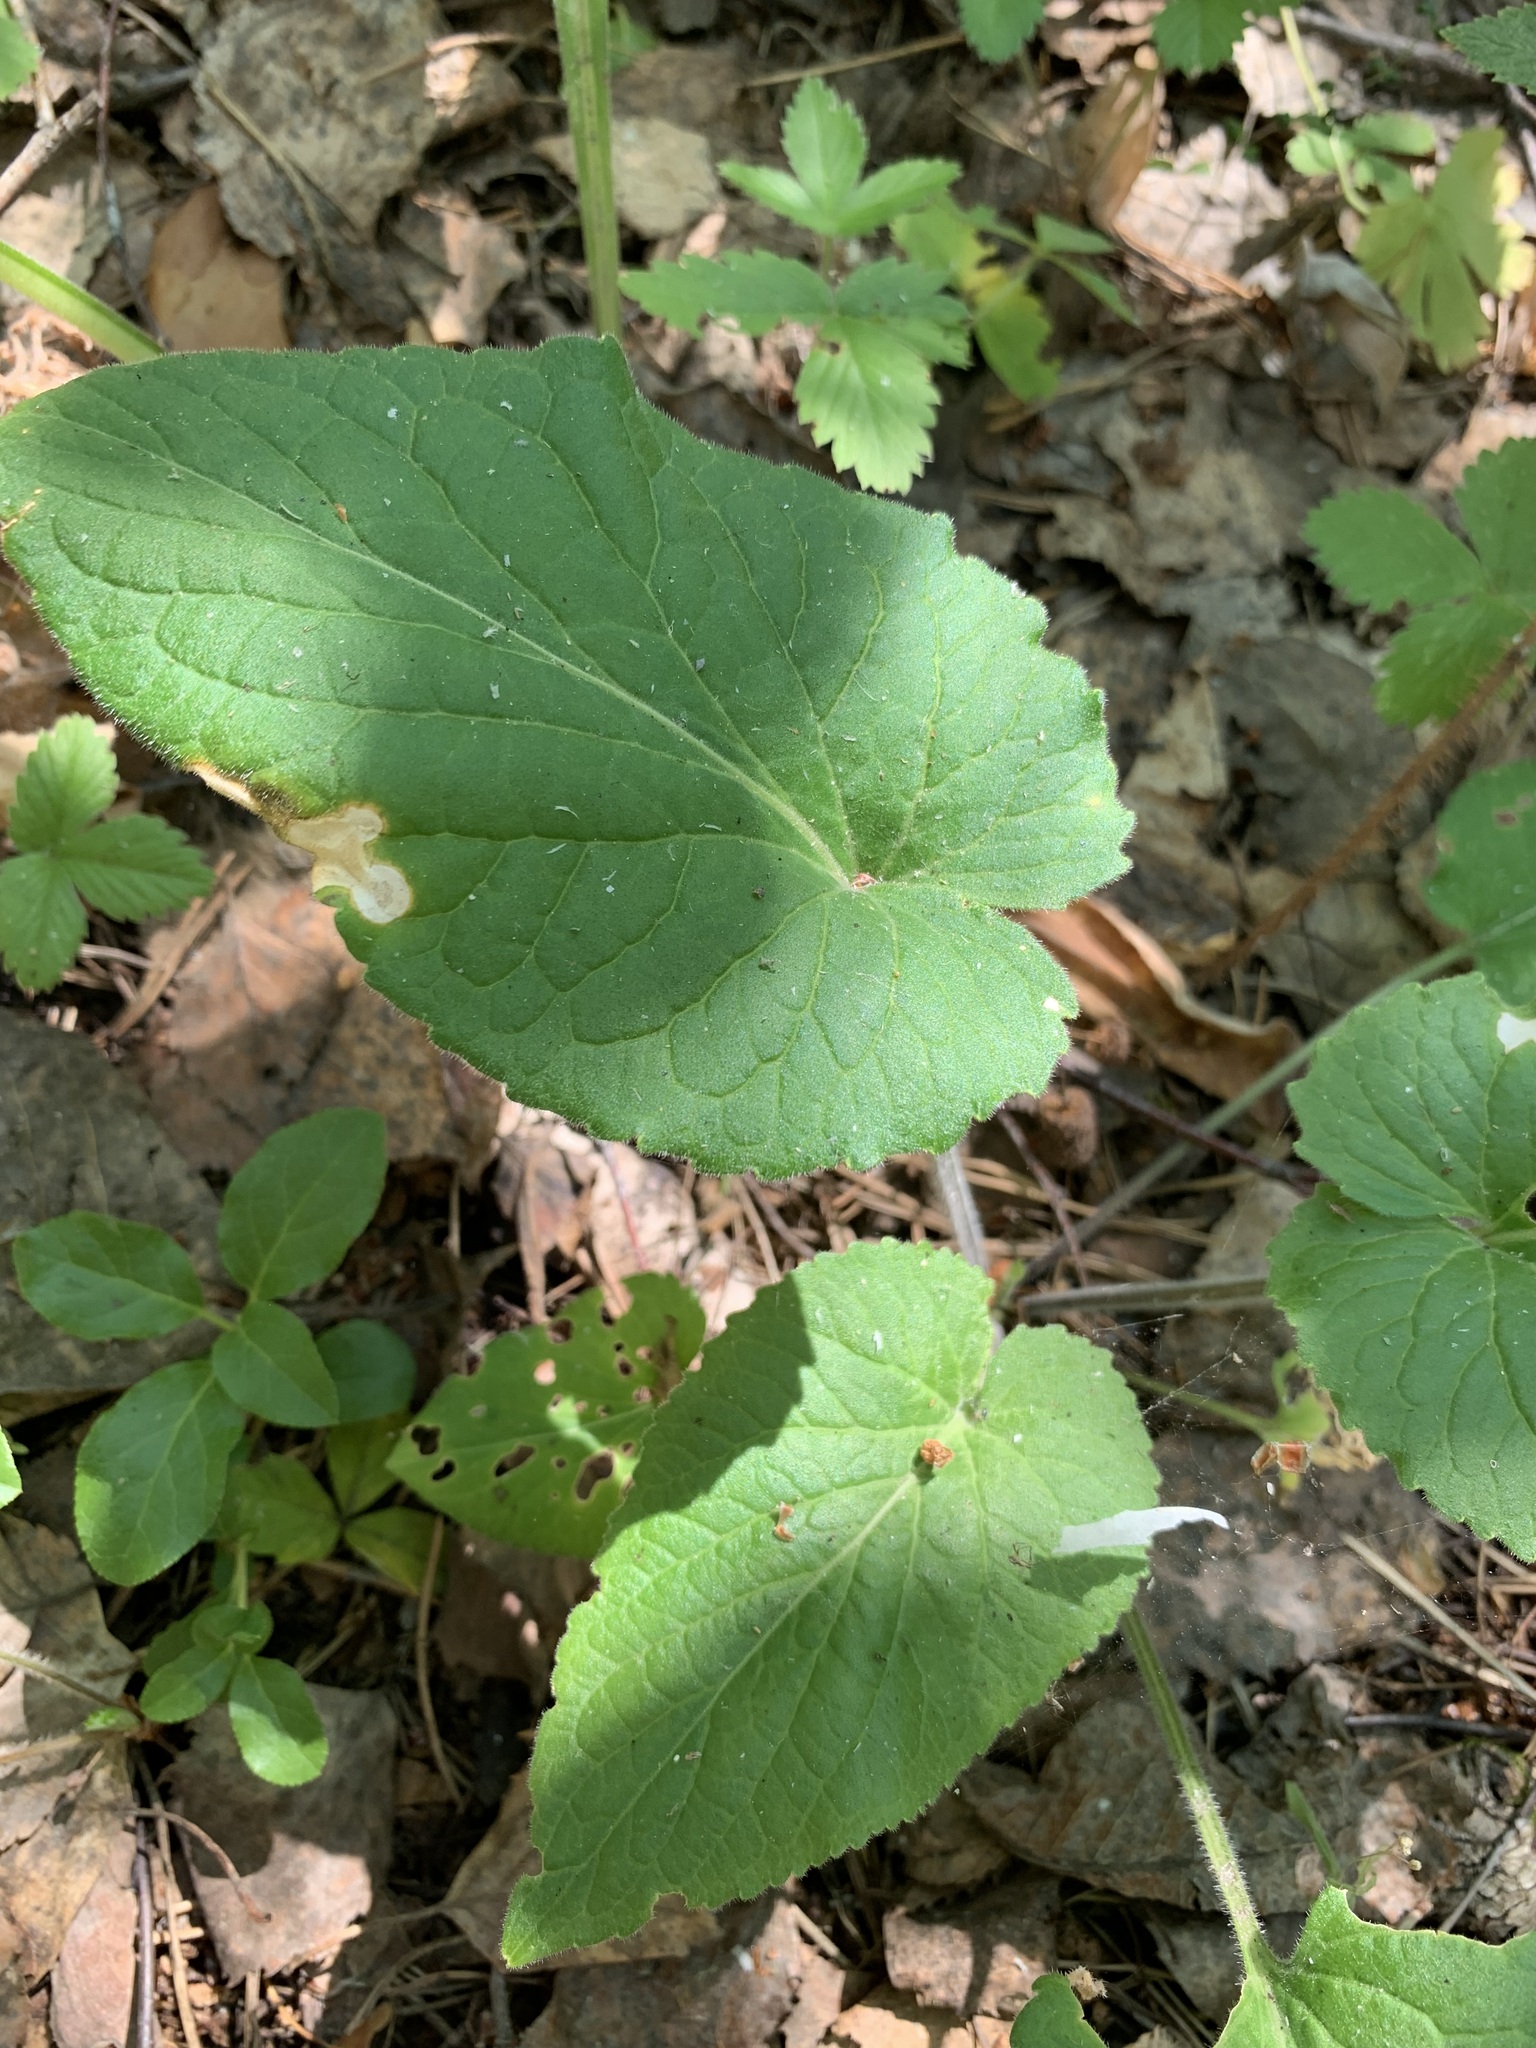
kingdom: Plantae
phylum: Tracheophyta
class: Magnoliopsida
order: Malpighiales
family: Violaceae
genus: Viola
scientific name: Viola hirta
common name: Hairy violet
